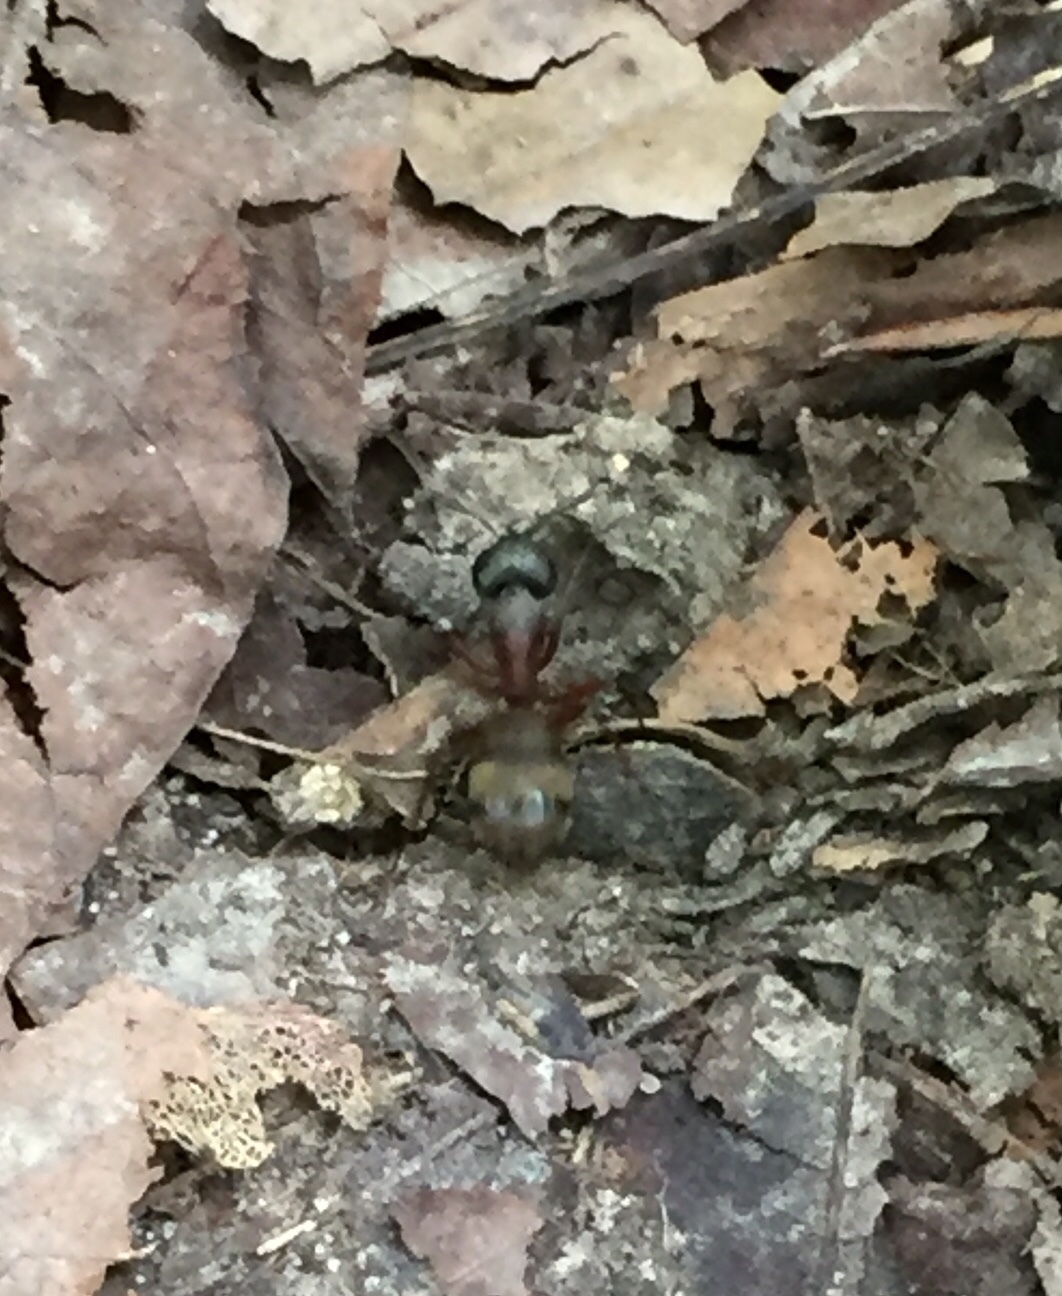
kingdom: Animalia
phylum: Arthropoda
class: Insecta
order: Hymenoptera
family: Formicidae
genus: Camponotus
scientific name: Camponotus chromaiodes
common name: Red carpenter ant
